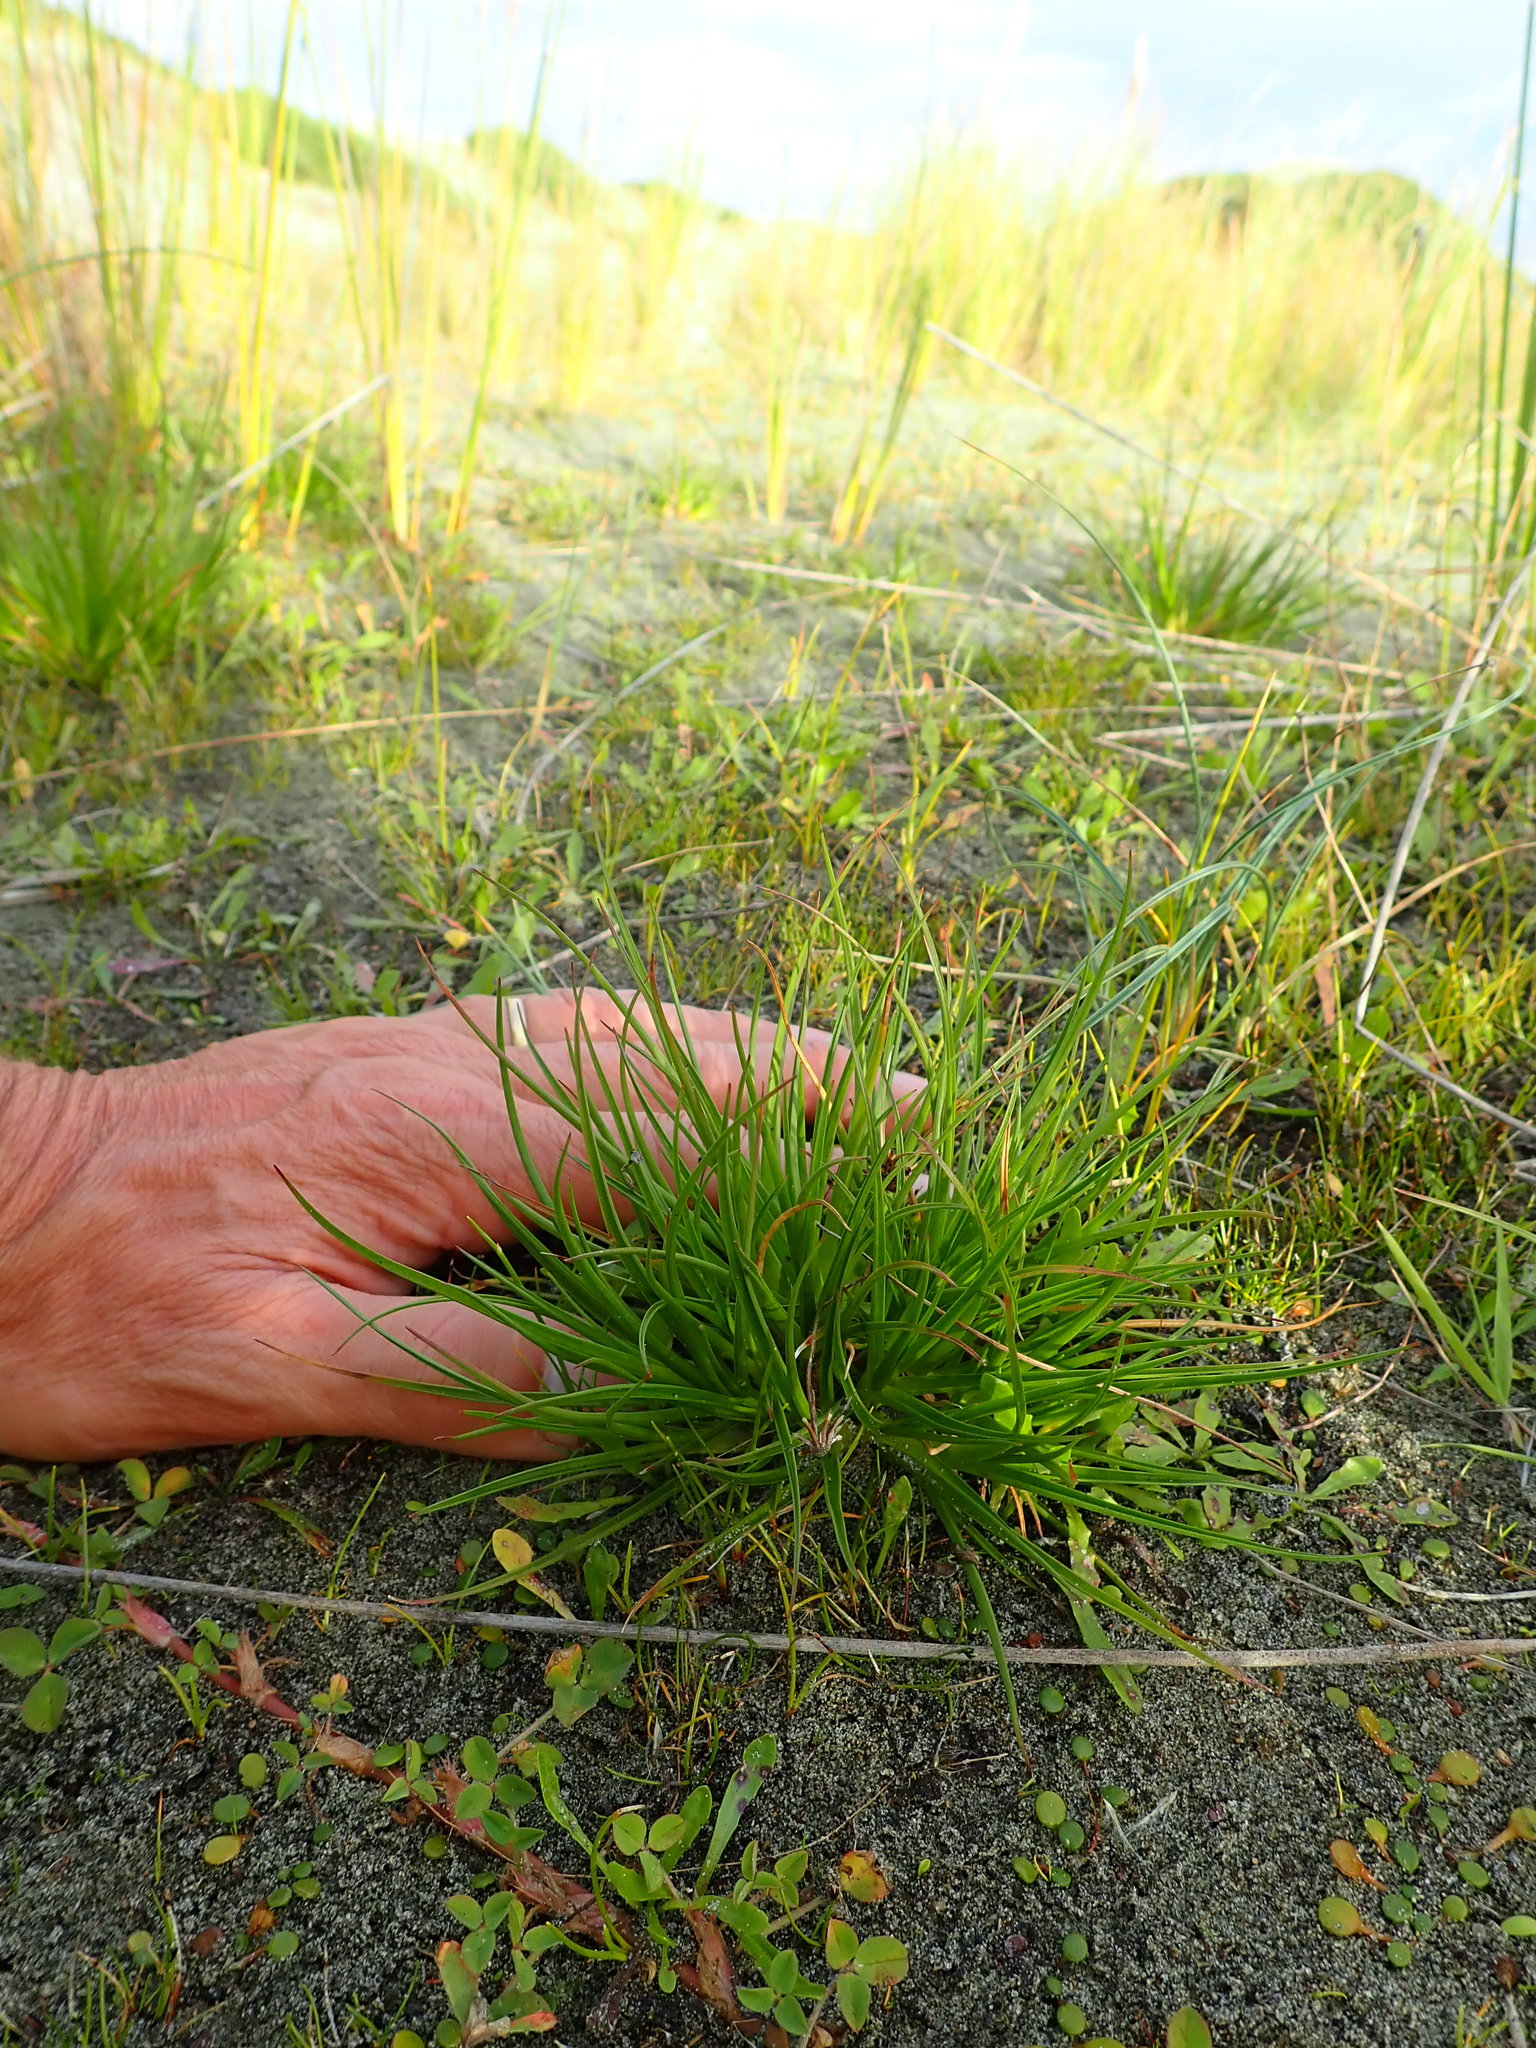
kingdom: Plantae
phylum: Tracheophyta
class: Liliopsida
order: Poales
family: Juncaceae
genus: Juncus
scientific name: Juncus caespiticius
